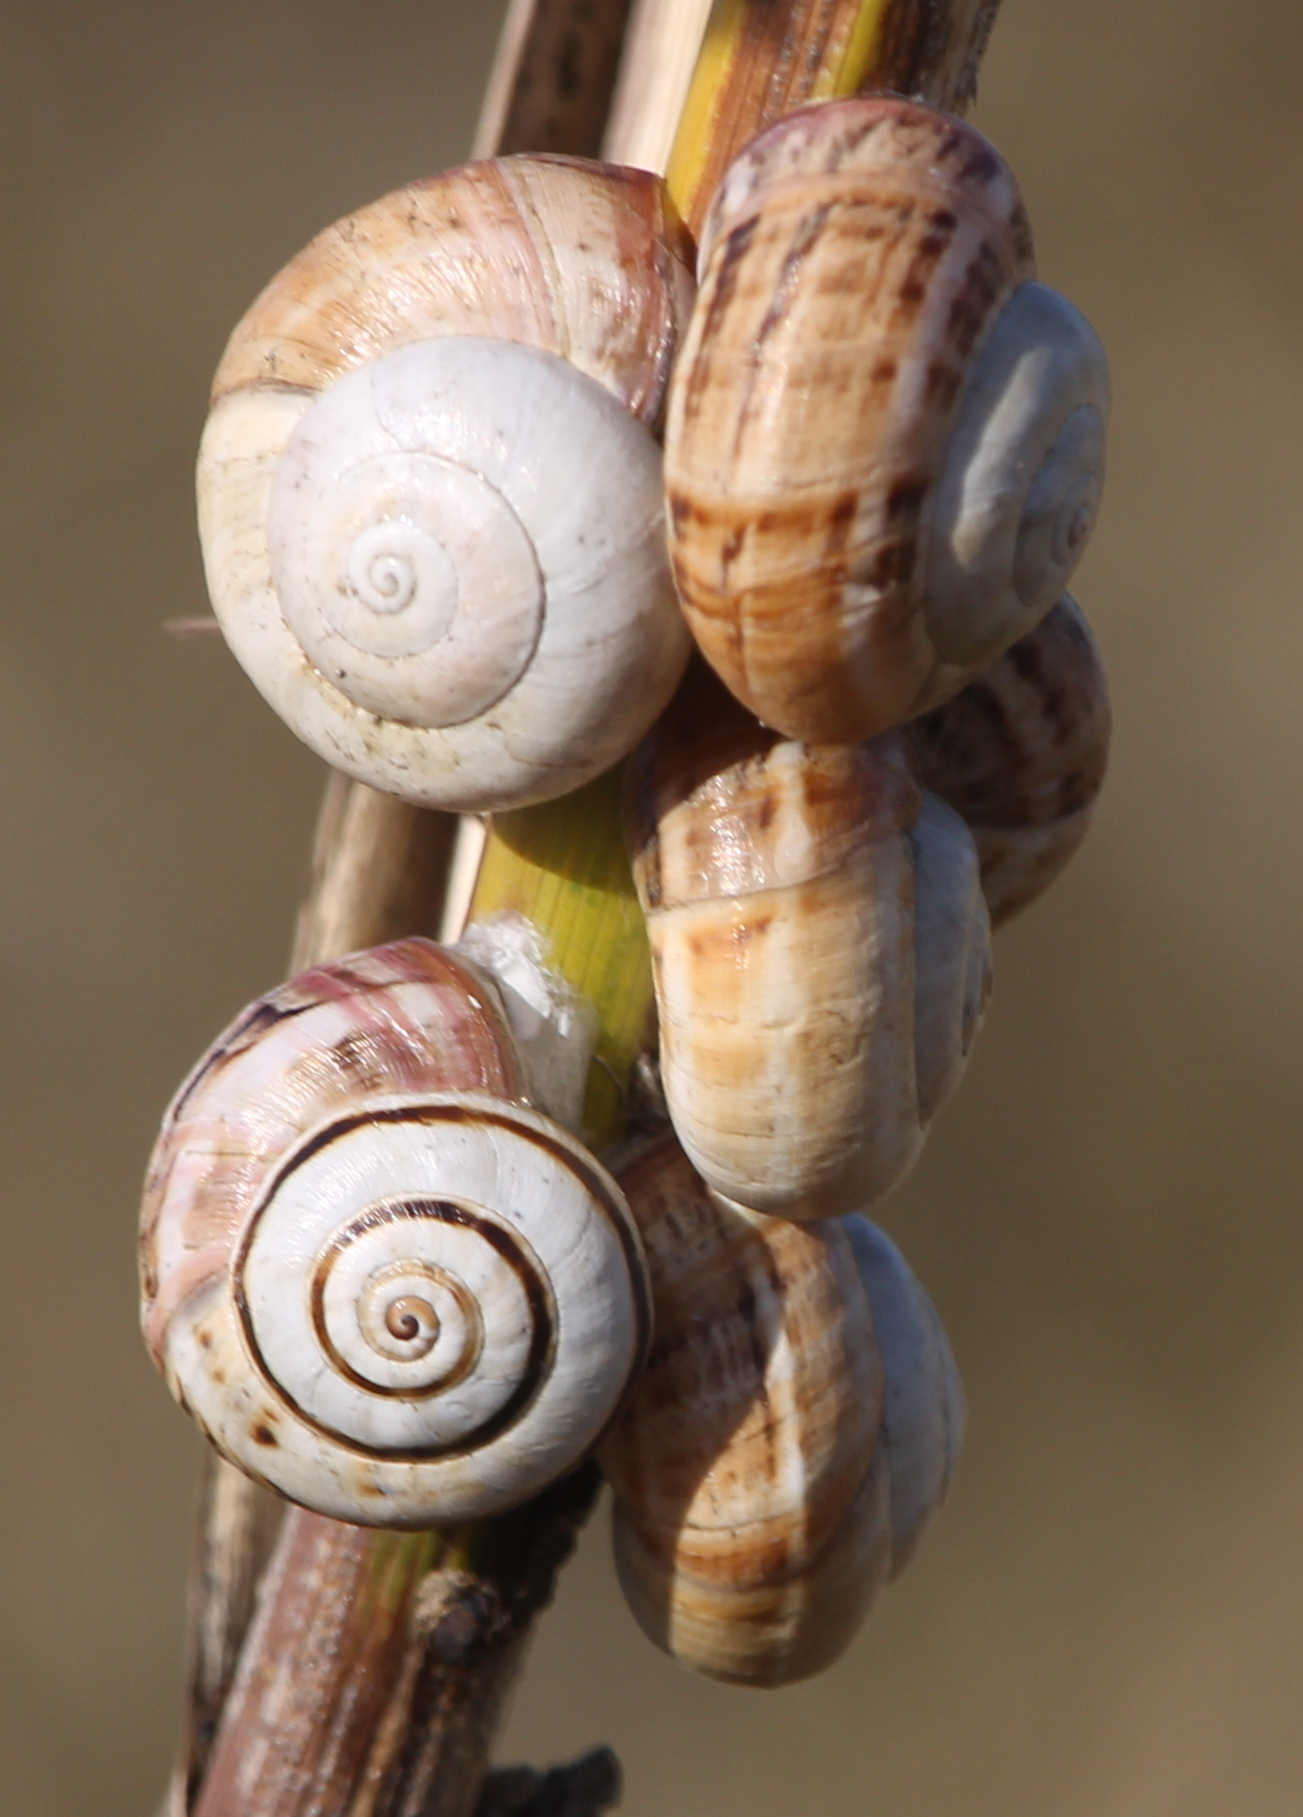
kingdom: Animalia
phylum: Mollusca
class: Gastropoda
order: Stylommatophora
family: Helicidae
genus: Theba
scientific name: Theba pisana
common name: White snail
